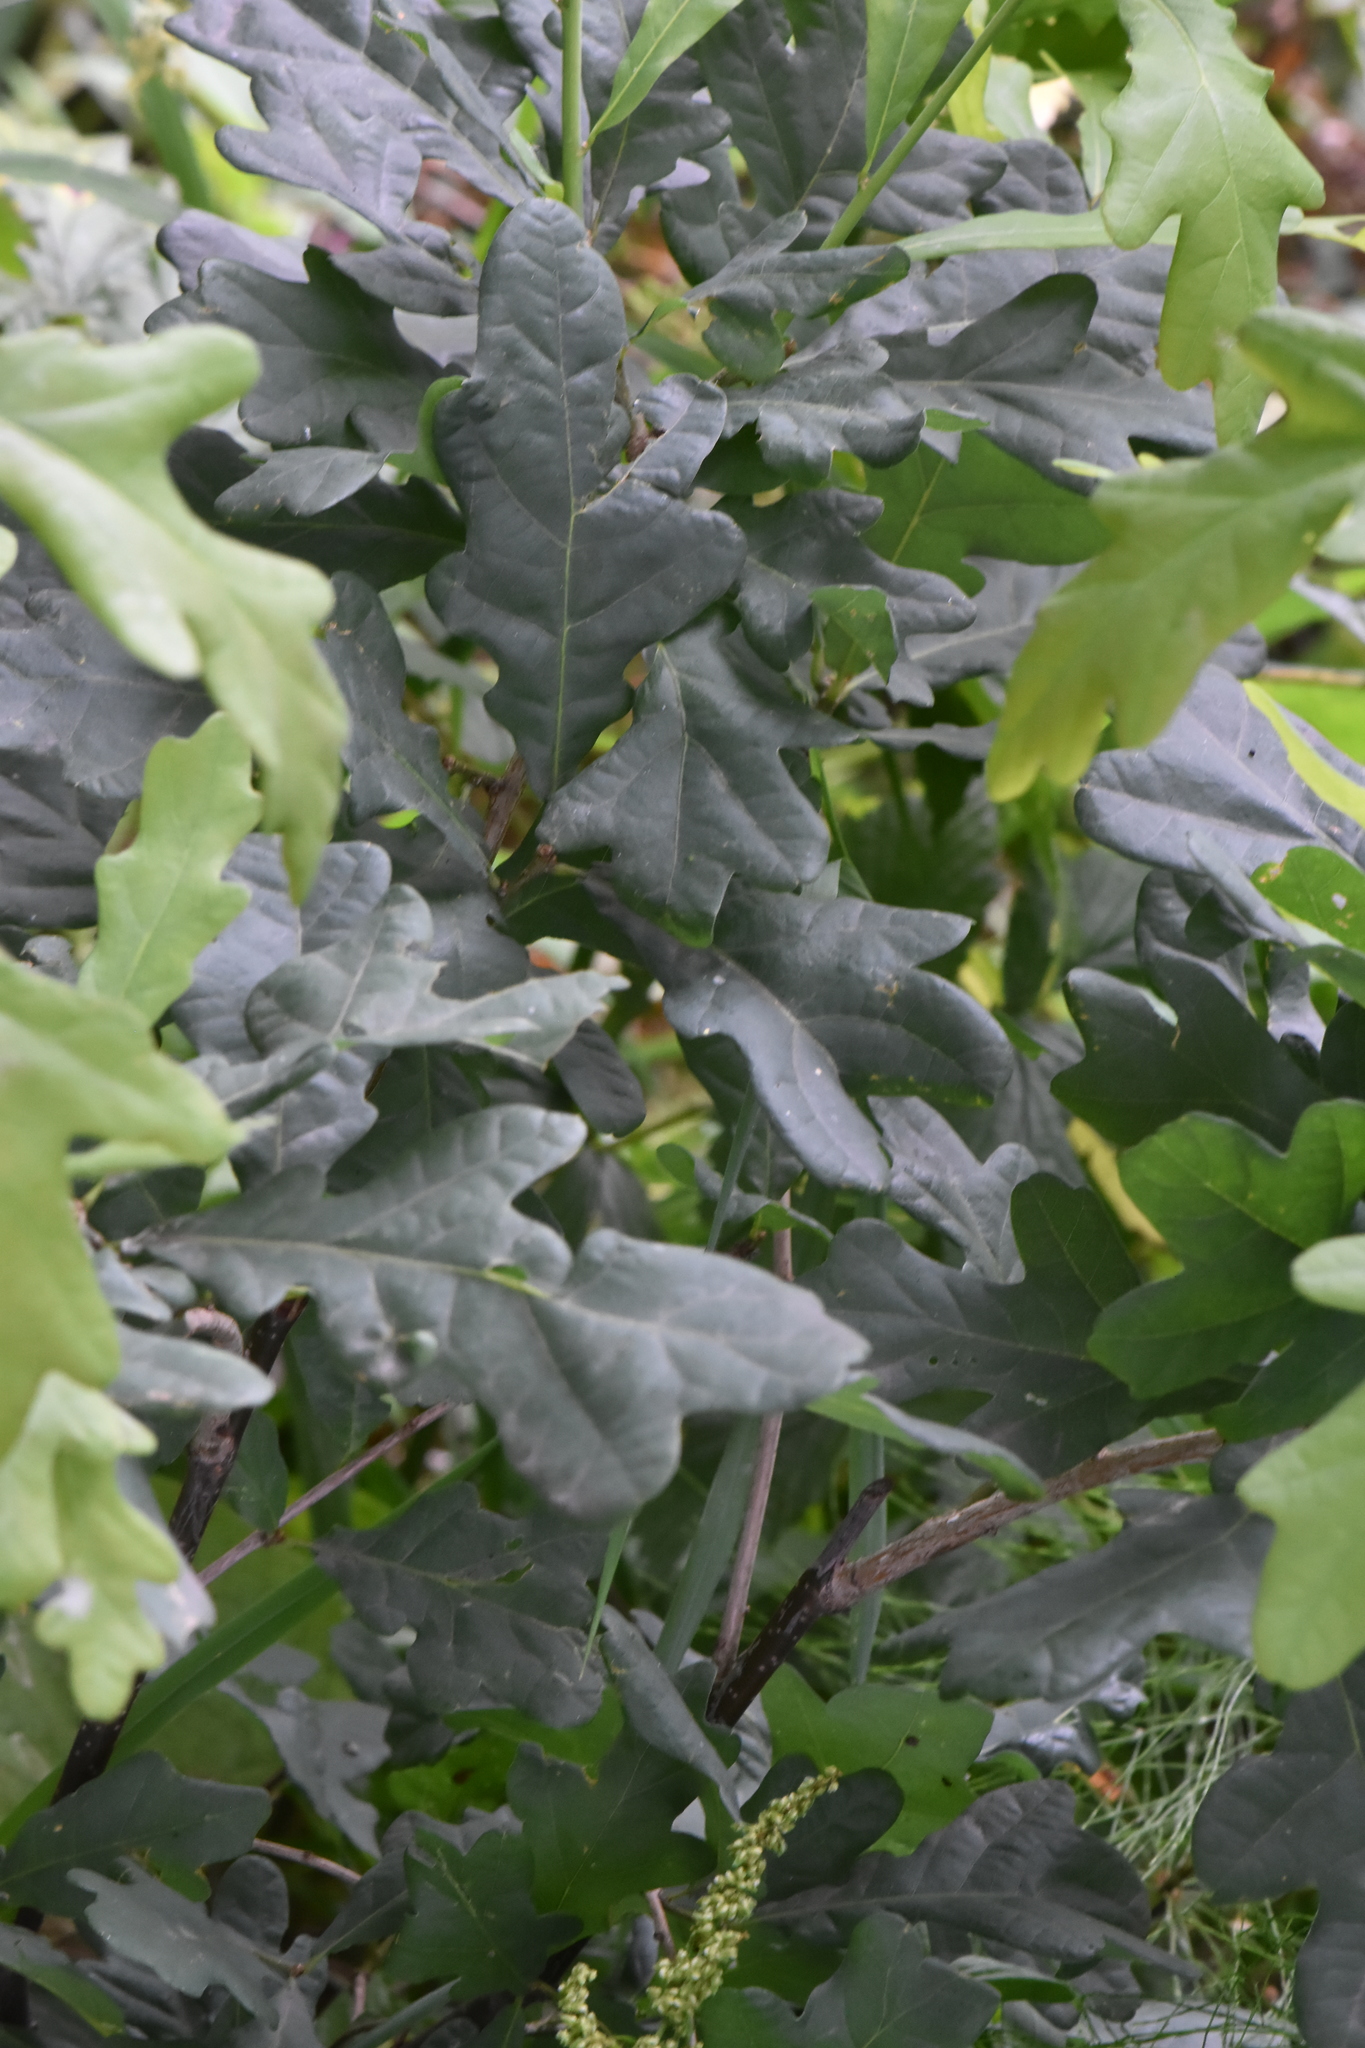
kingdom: Plantae
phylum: Tracheophyta
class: Magnoliopsida
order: Fagales
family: Fagaceae
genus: Quercus
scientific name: Quercus robur
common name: Pedunculate oak
